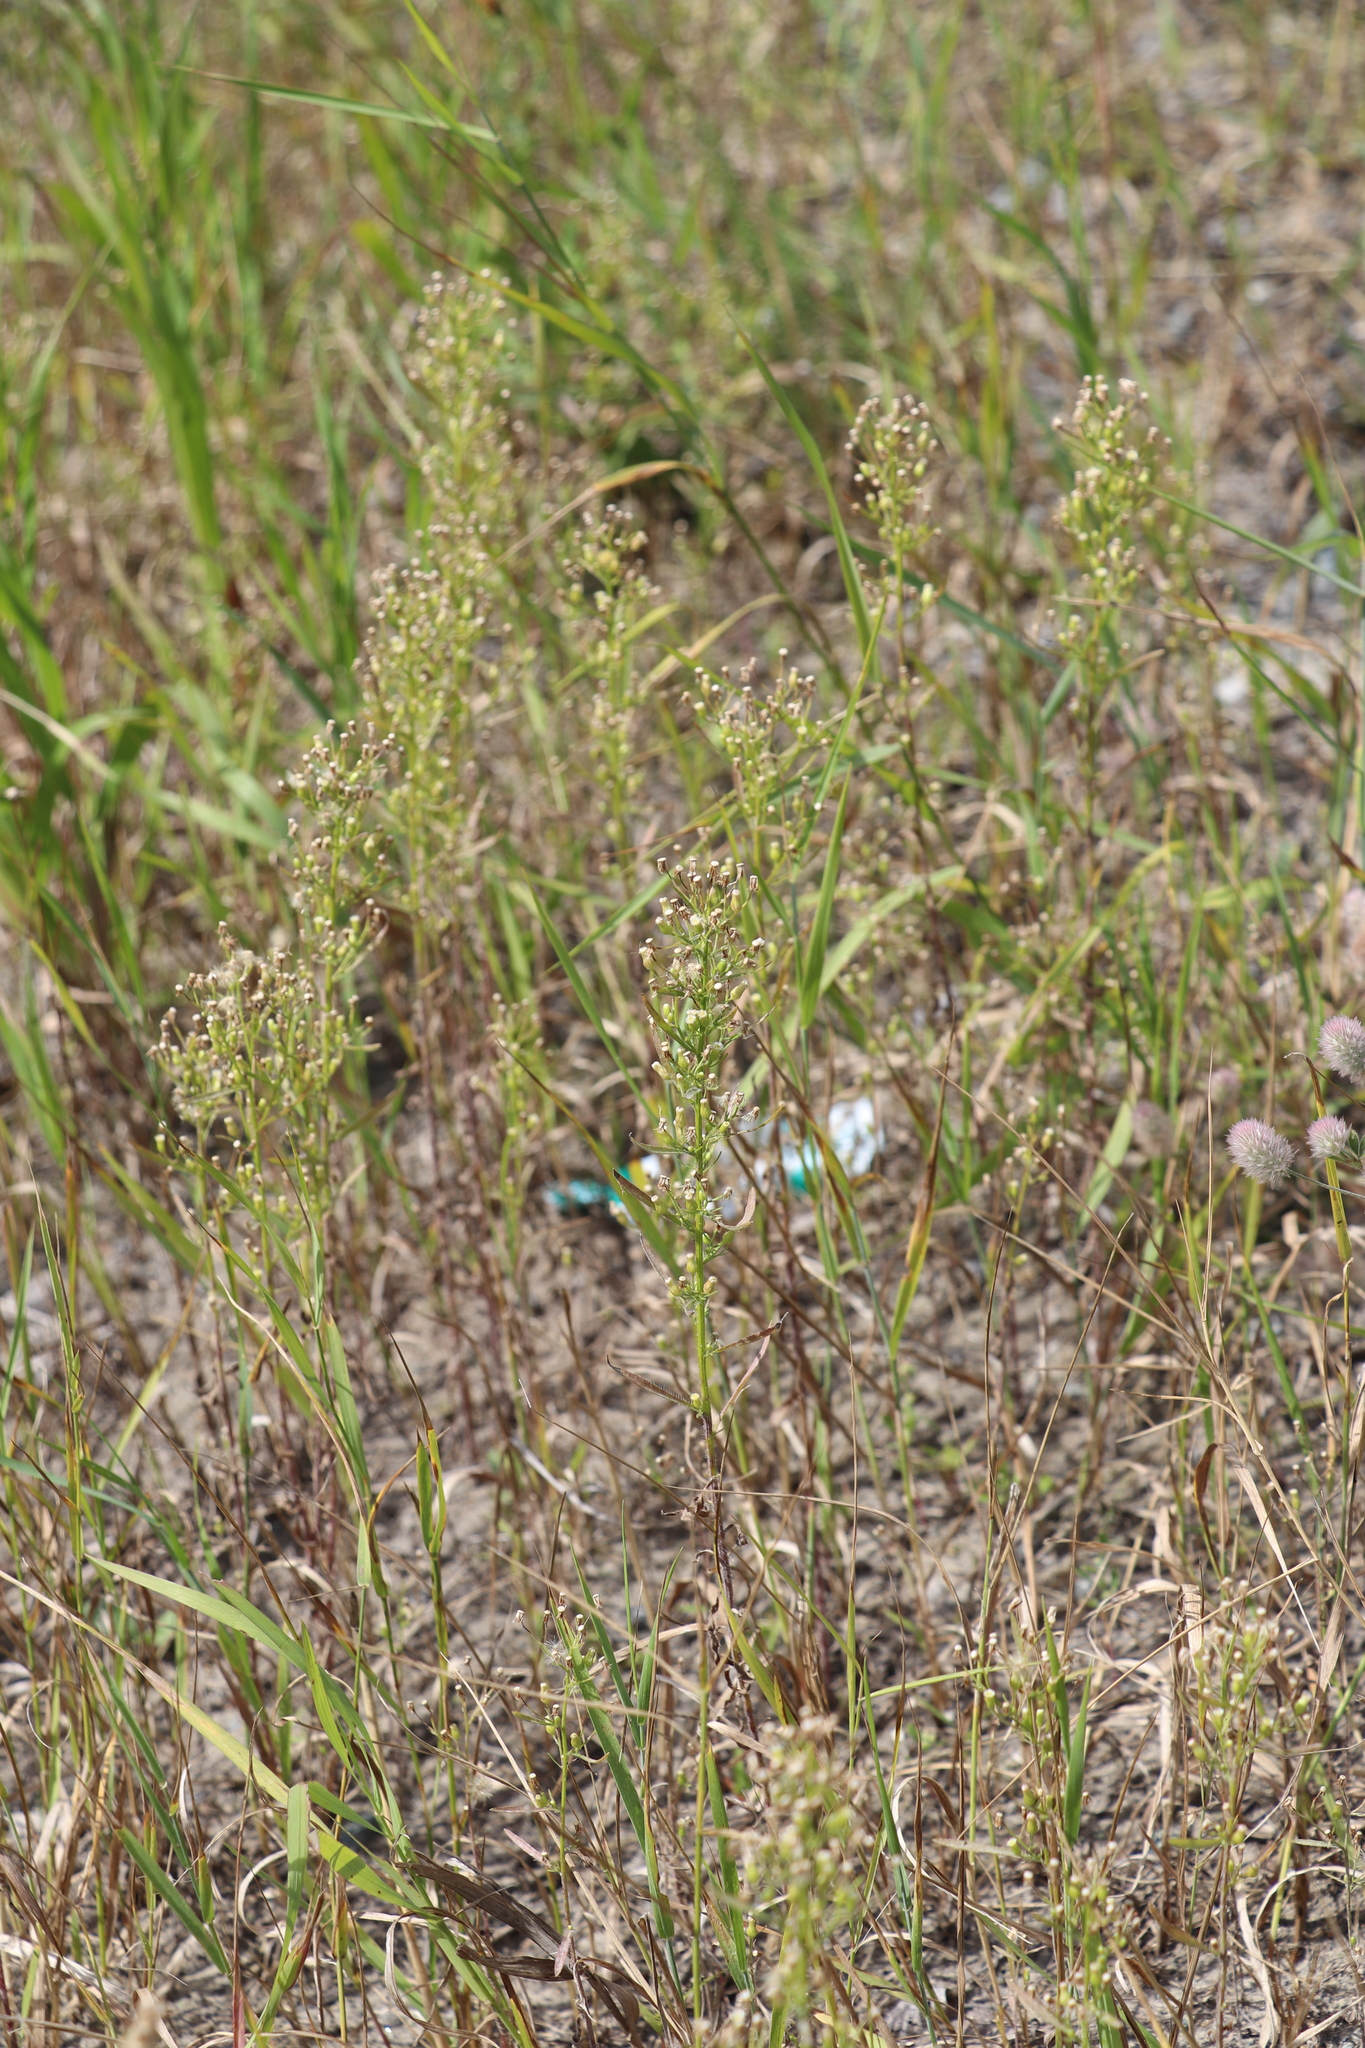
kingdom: Plantae
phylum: Tracheophyta
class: Magnoliopsida
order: Asterales
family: Asteraceae
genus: Erigeron
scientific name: Erigeron canadensis
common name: Canadian fleabane
